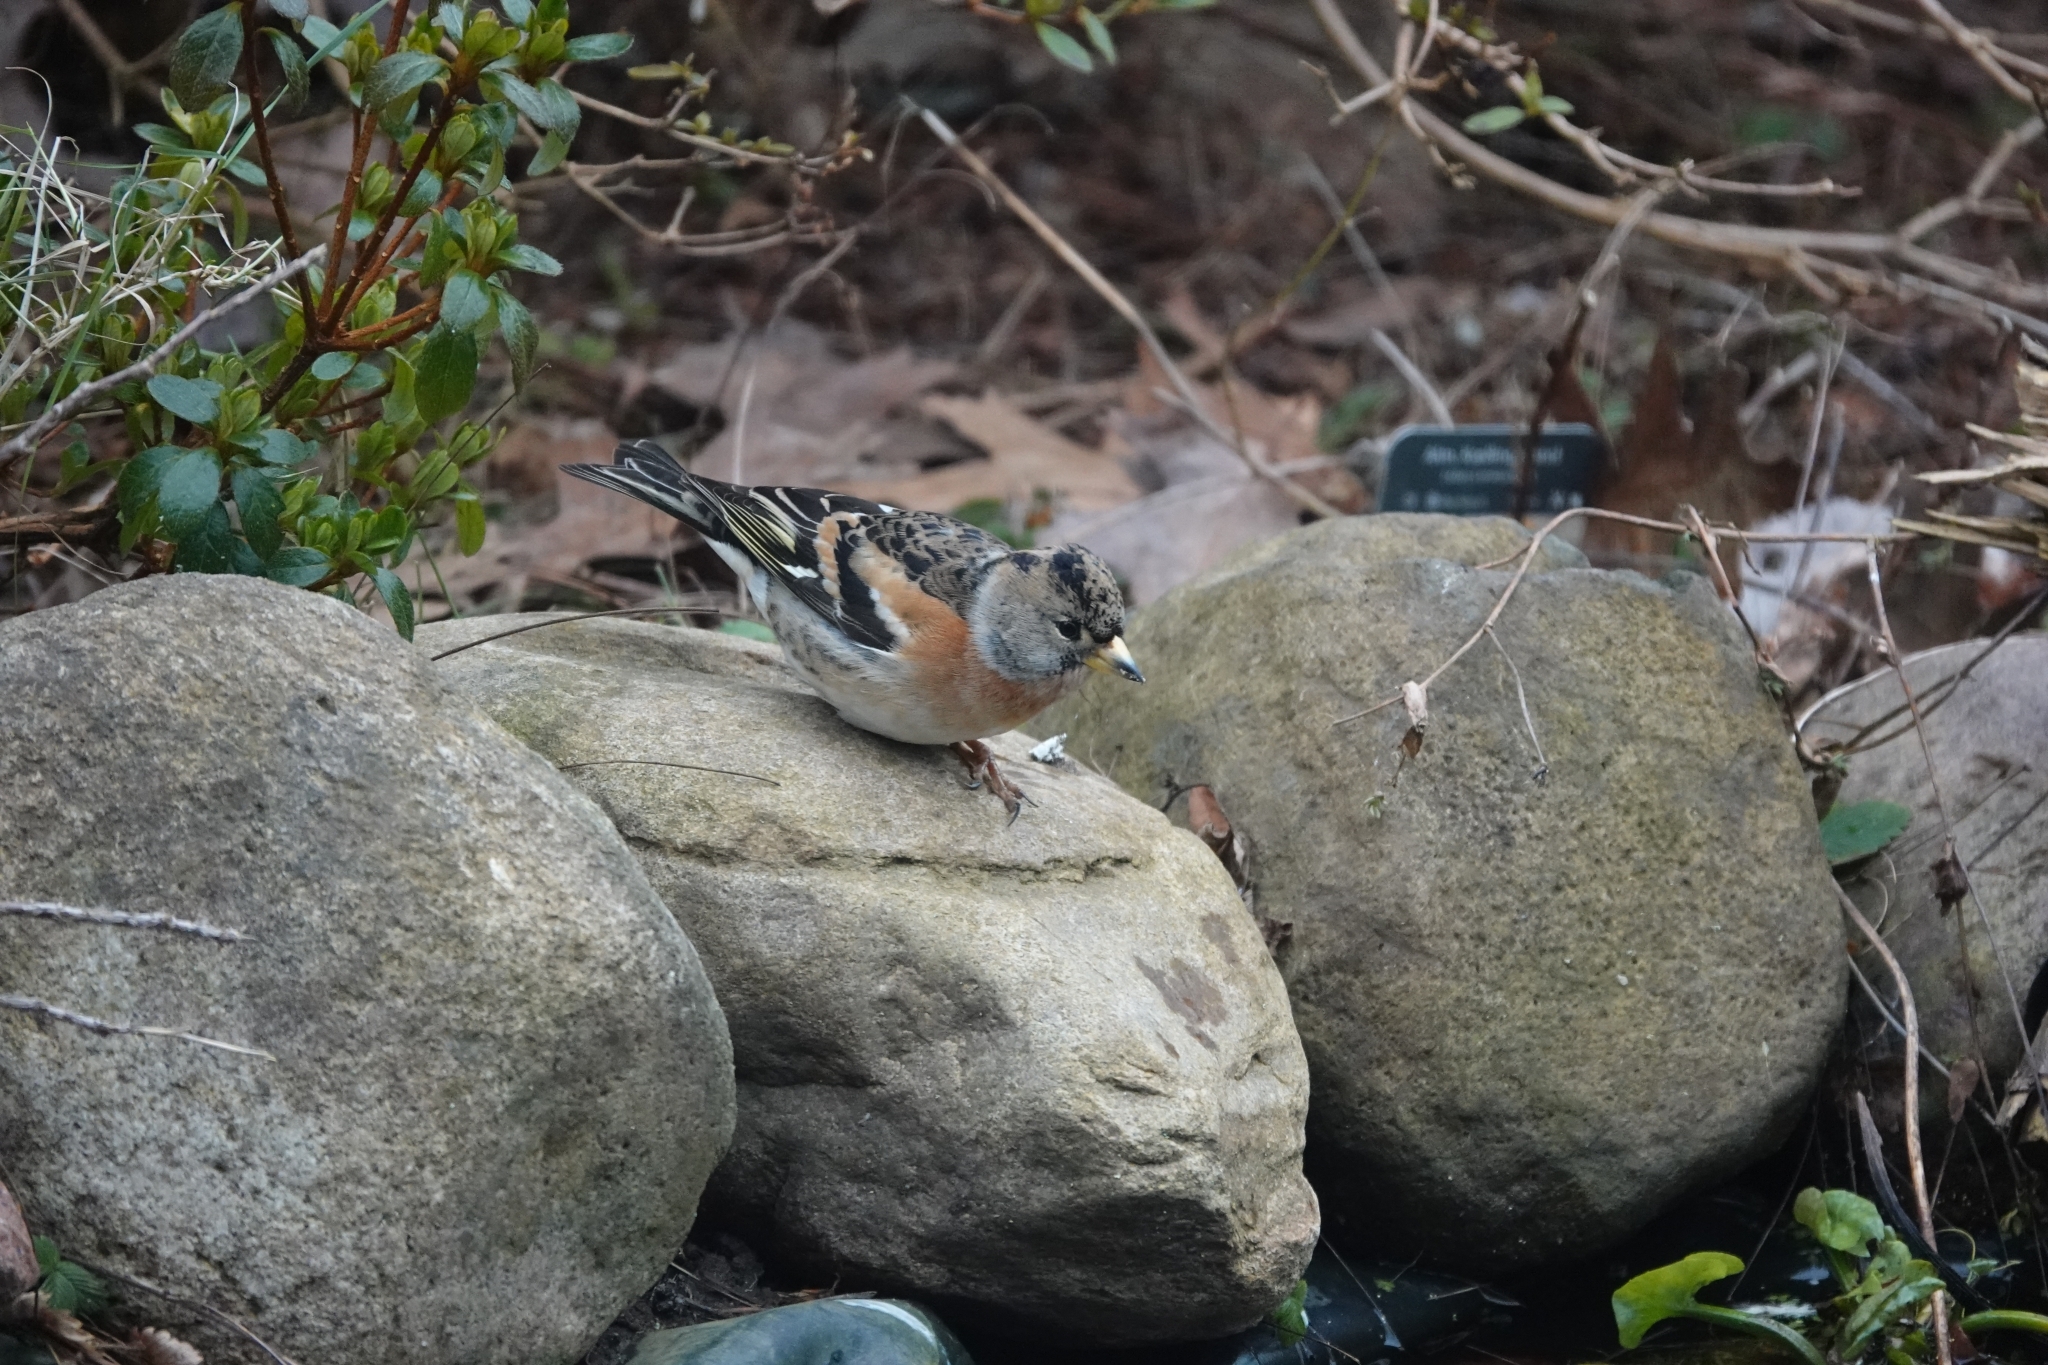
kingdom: Animalia
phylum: Chordata
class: Aves
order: Passeriformes
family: Fringillidae
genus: Fringilla
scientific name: Fringilla montifringilla
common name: Brambling
